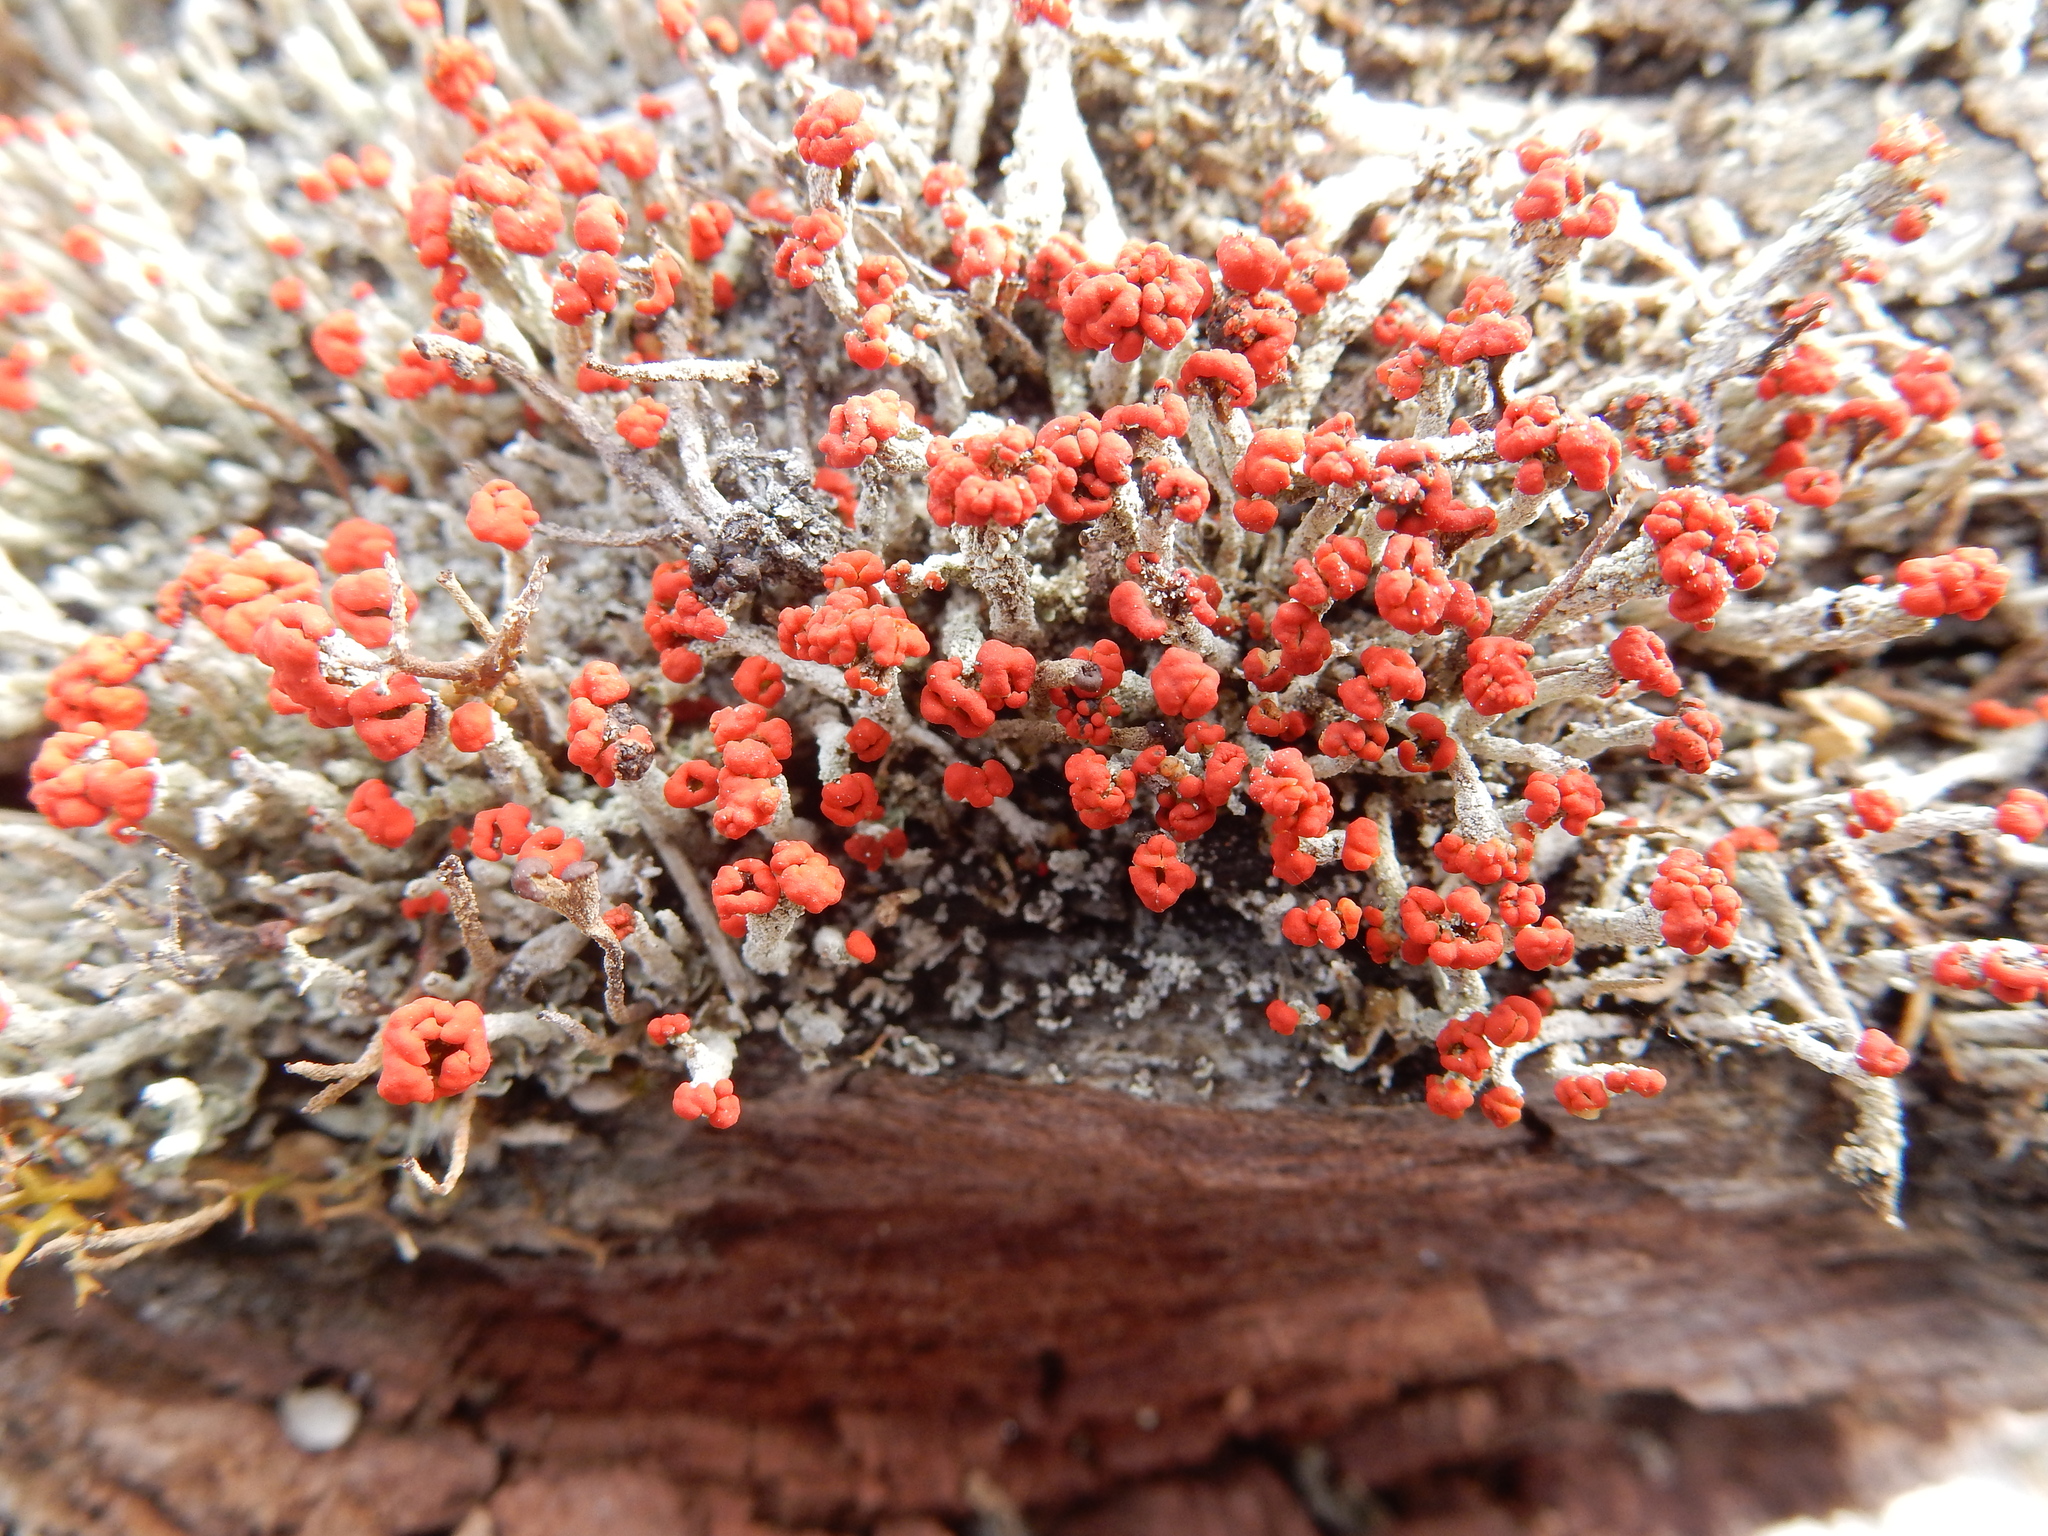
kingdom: Fungi
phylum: Ascomycota
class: Lecanoromycetes
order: Lecanorales
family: Cladoniaceae
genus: Cladonia
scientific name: Cladonia floerkeana
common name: Gritty british soldiers lichen
